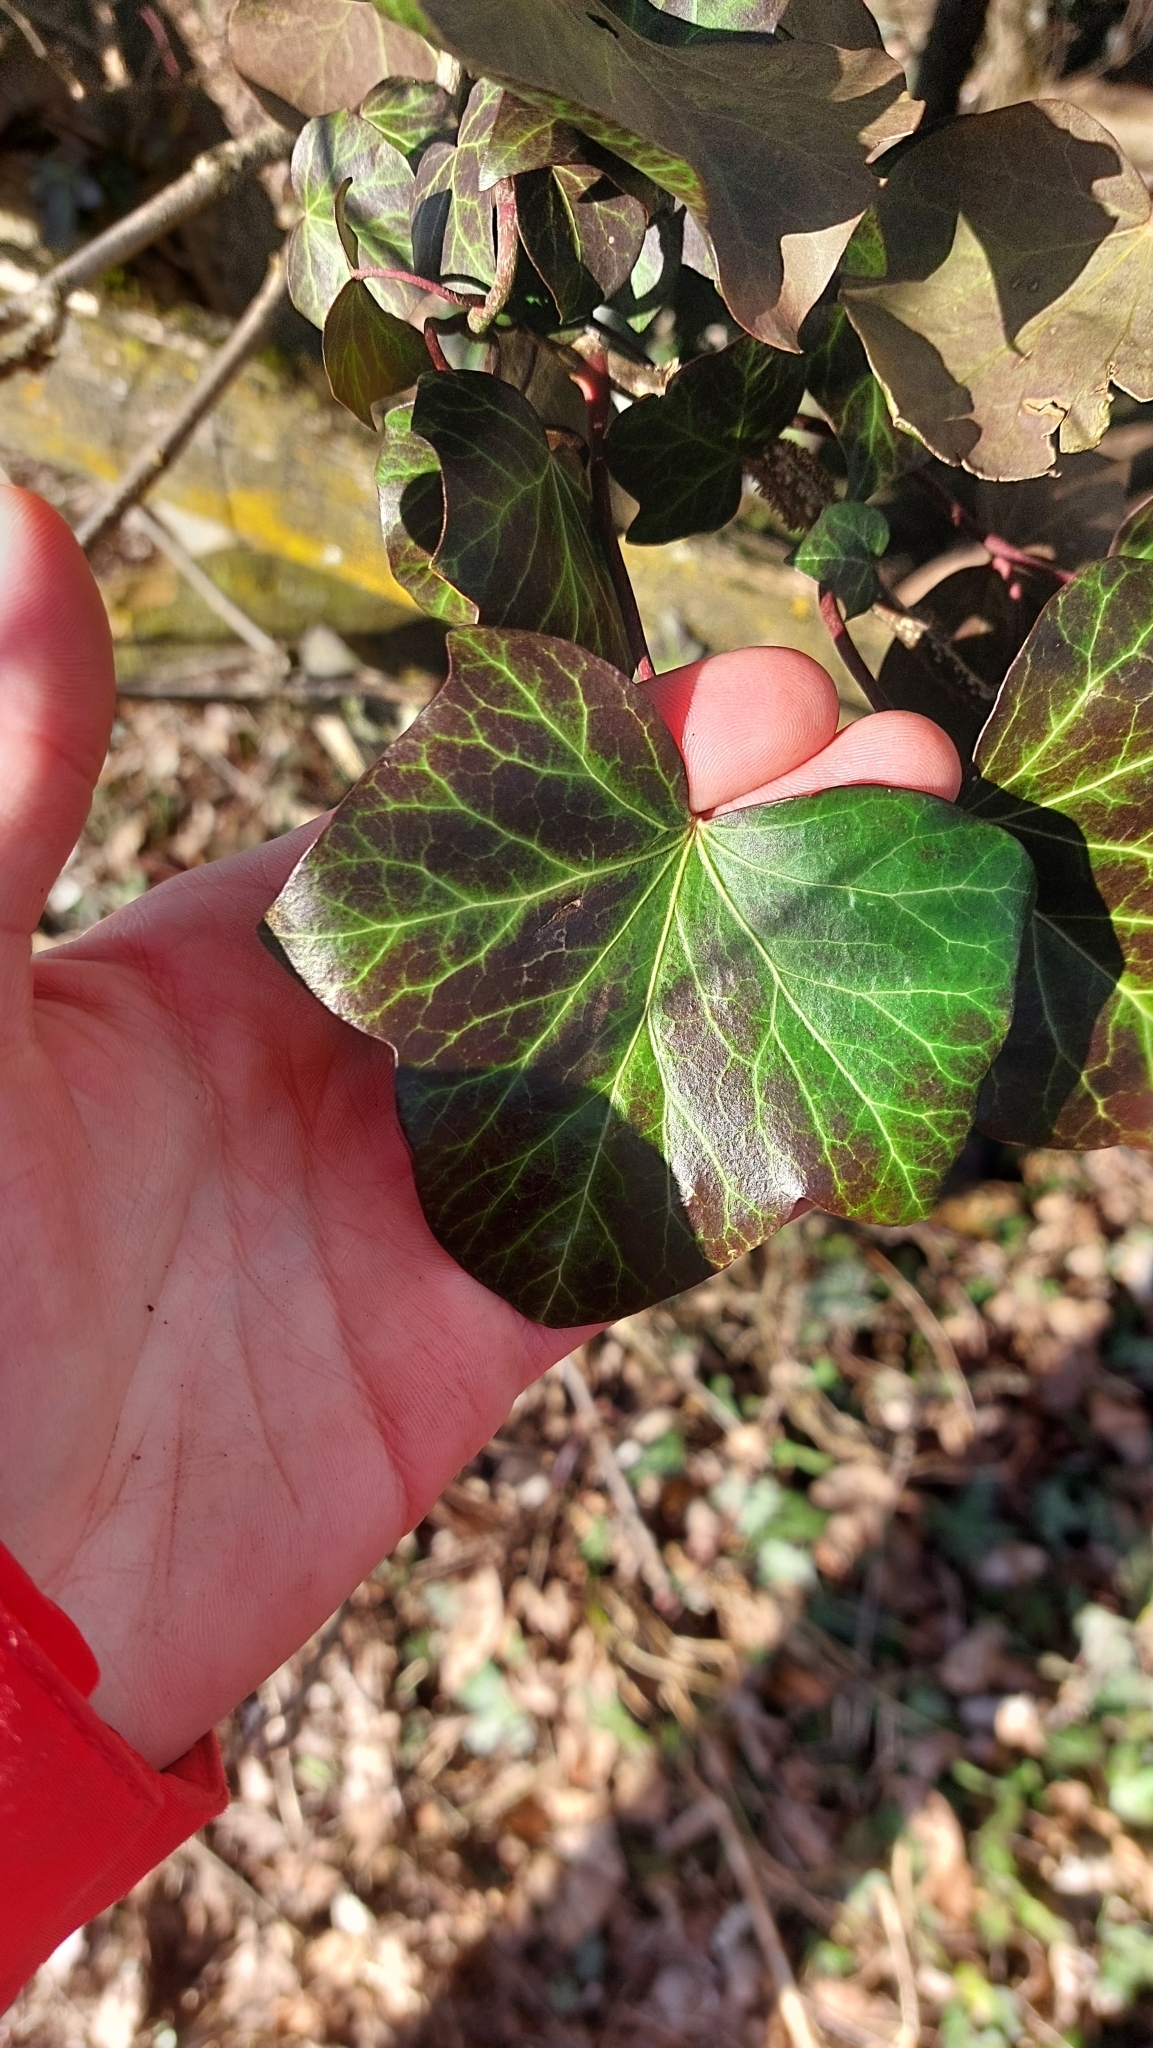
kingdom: Plantae
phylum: Tracheophyta
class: Magnoliopsida
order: Apiales
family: Araliaceae
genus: Hedera
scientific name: Hedera helix
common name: Ivy
